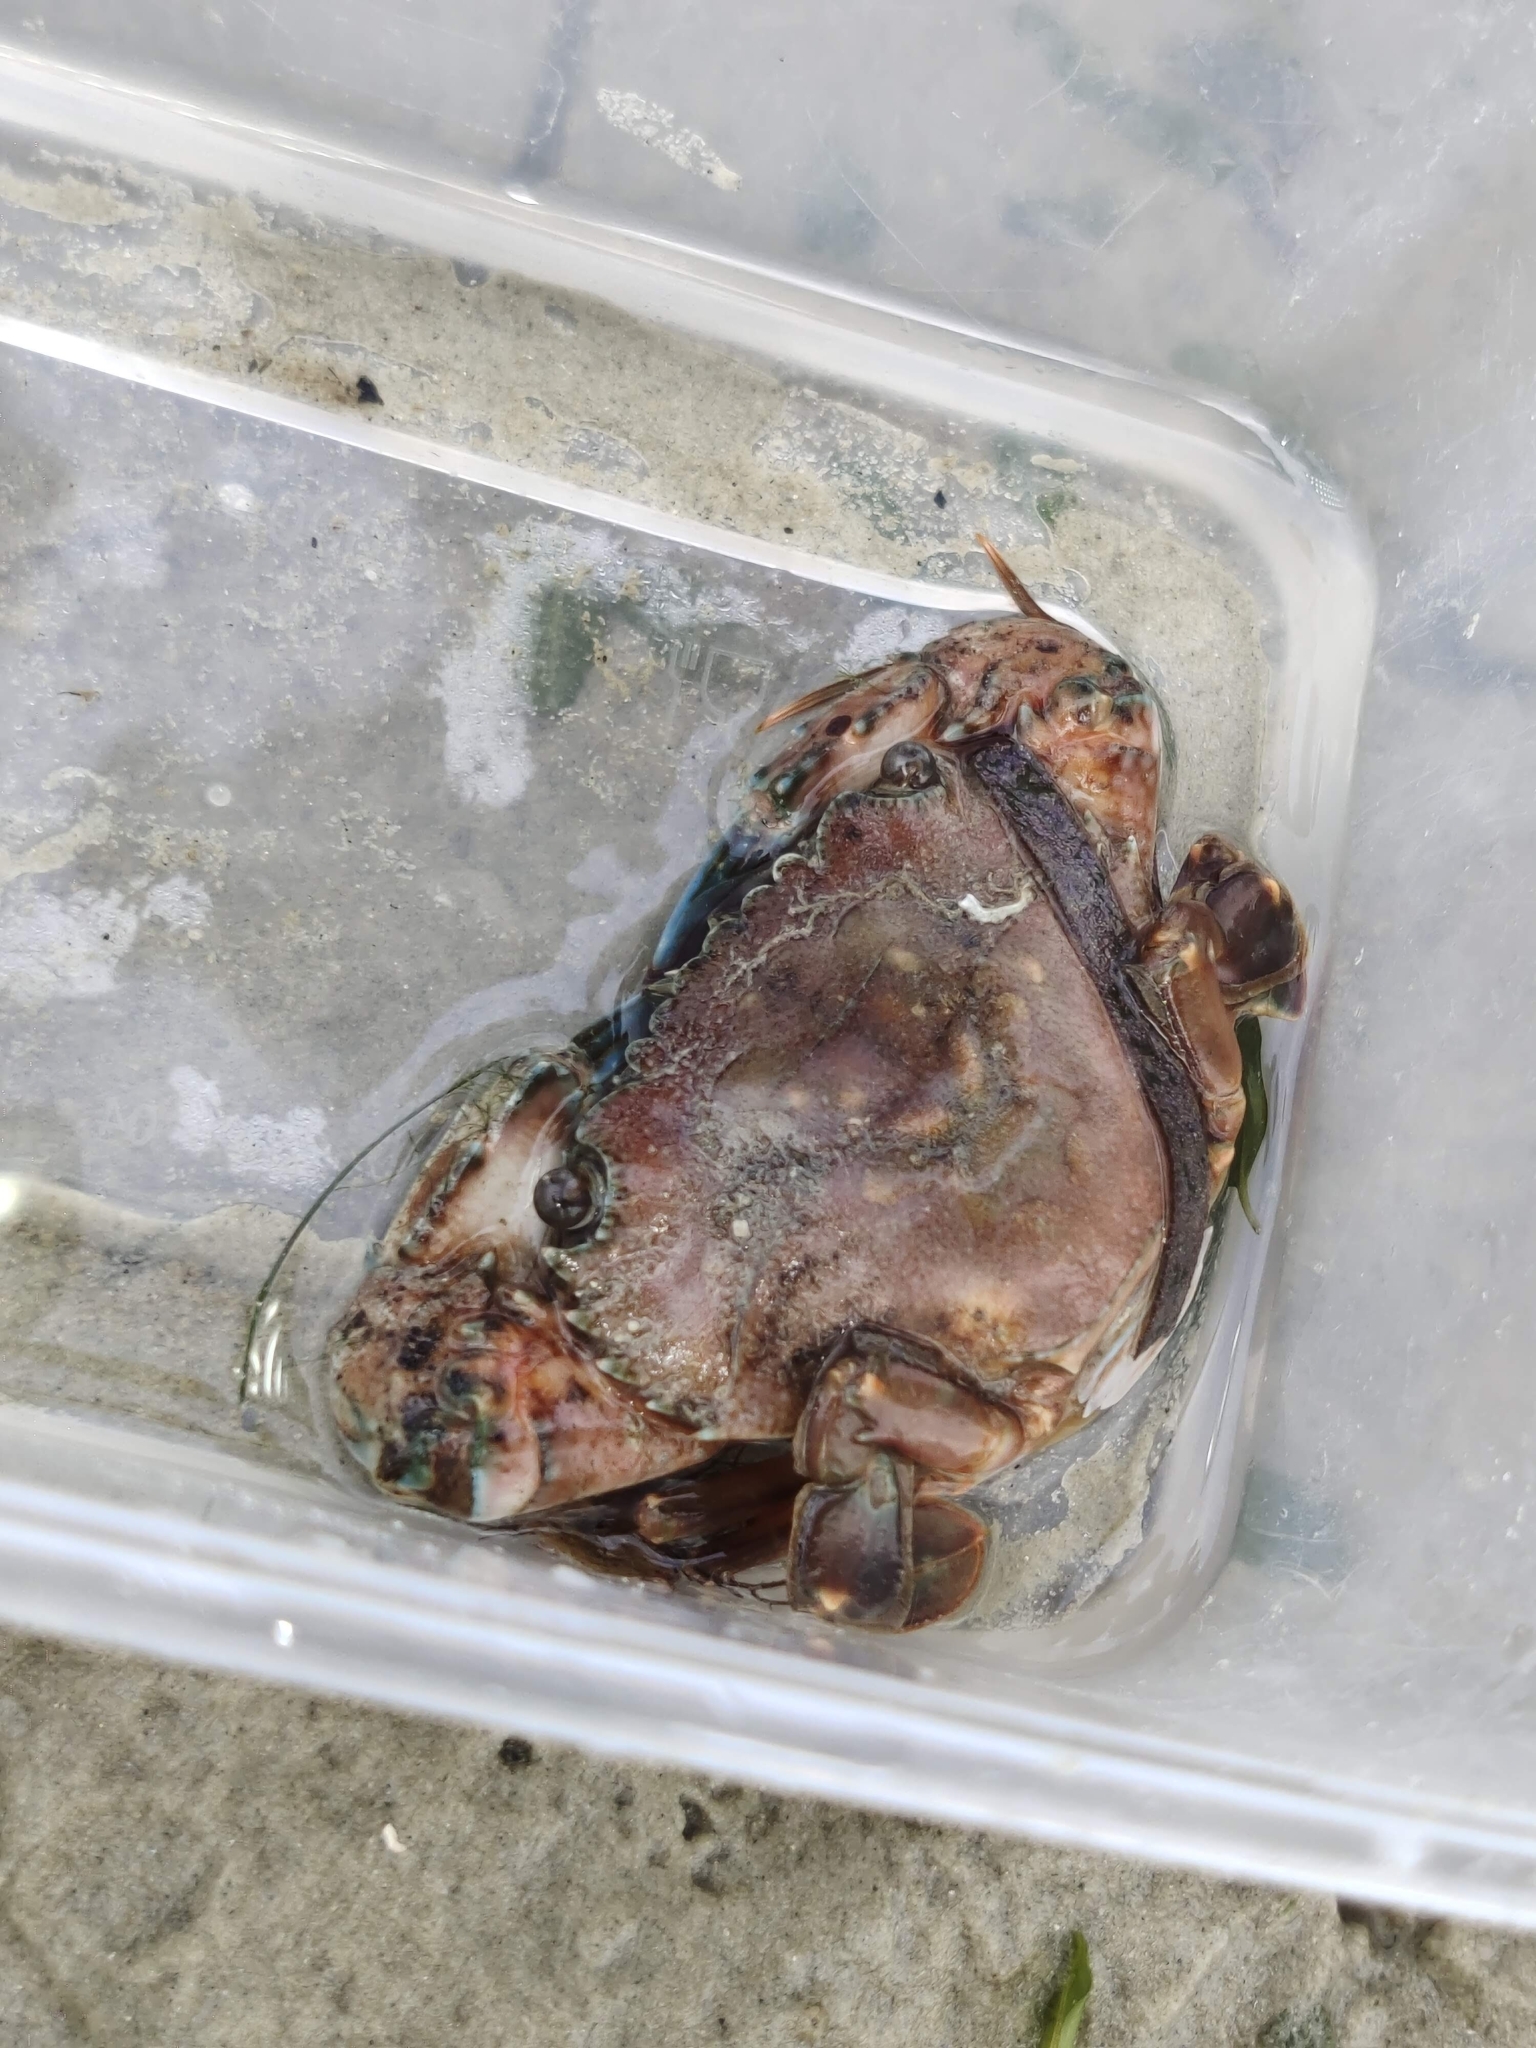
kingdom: Animalia
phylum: Arthropoda
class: Malacostraca
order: Decapoda
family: Portunidae
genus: Thalamita
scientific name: Thalamita crenata
